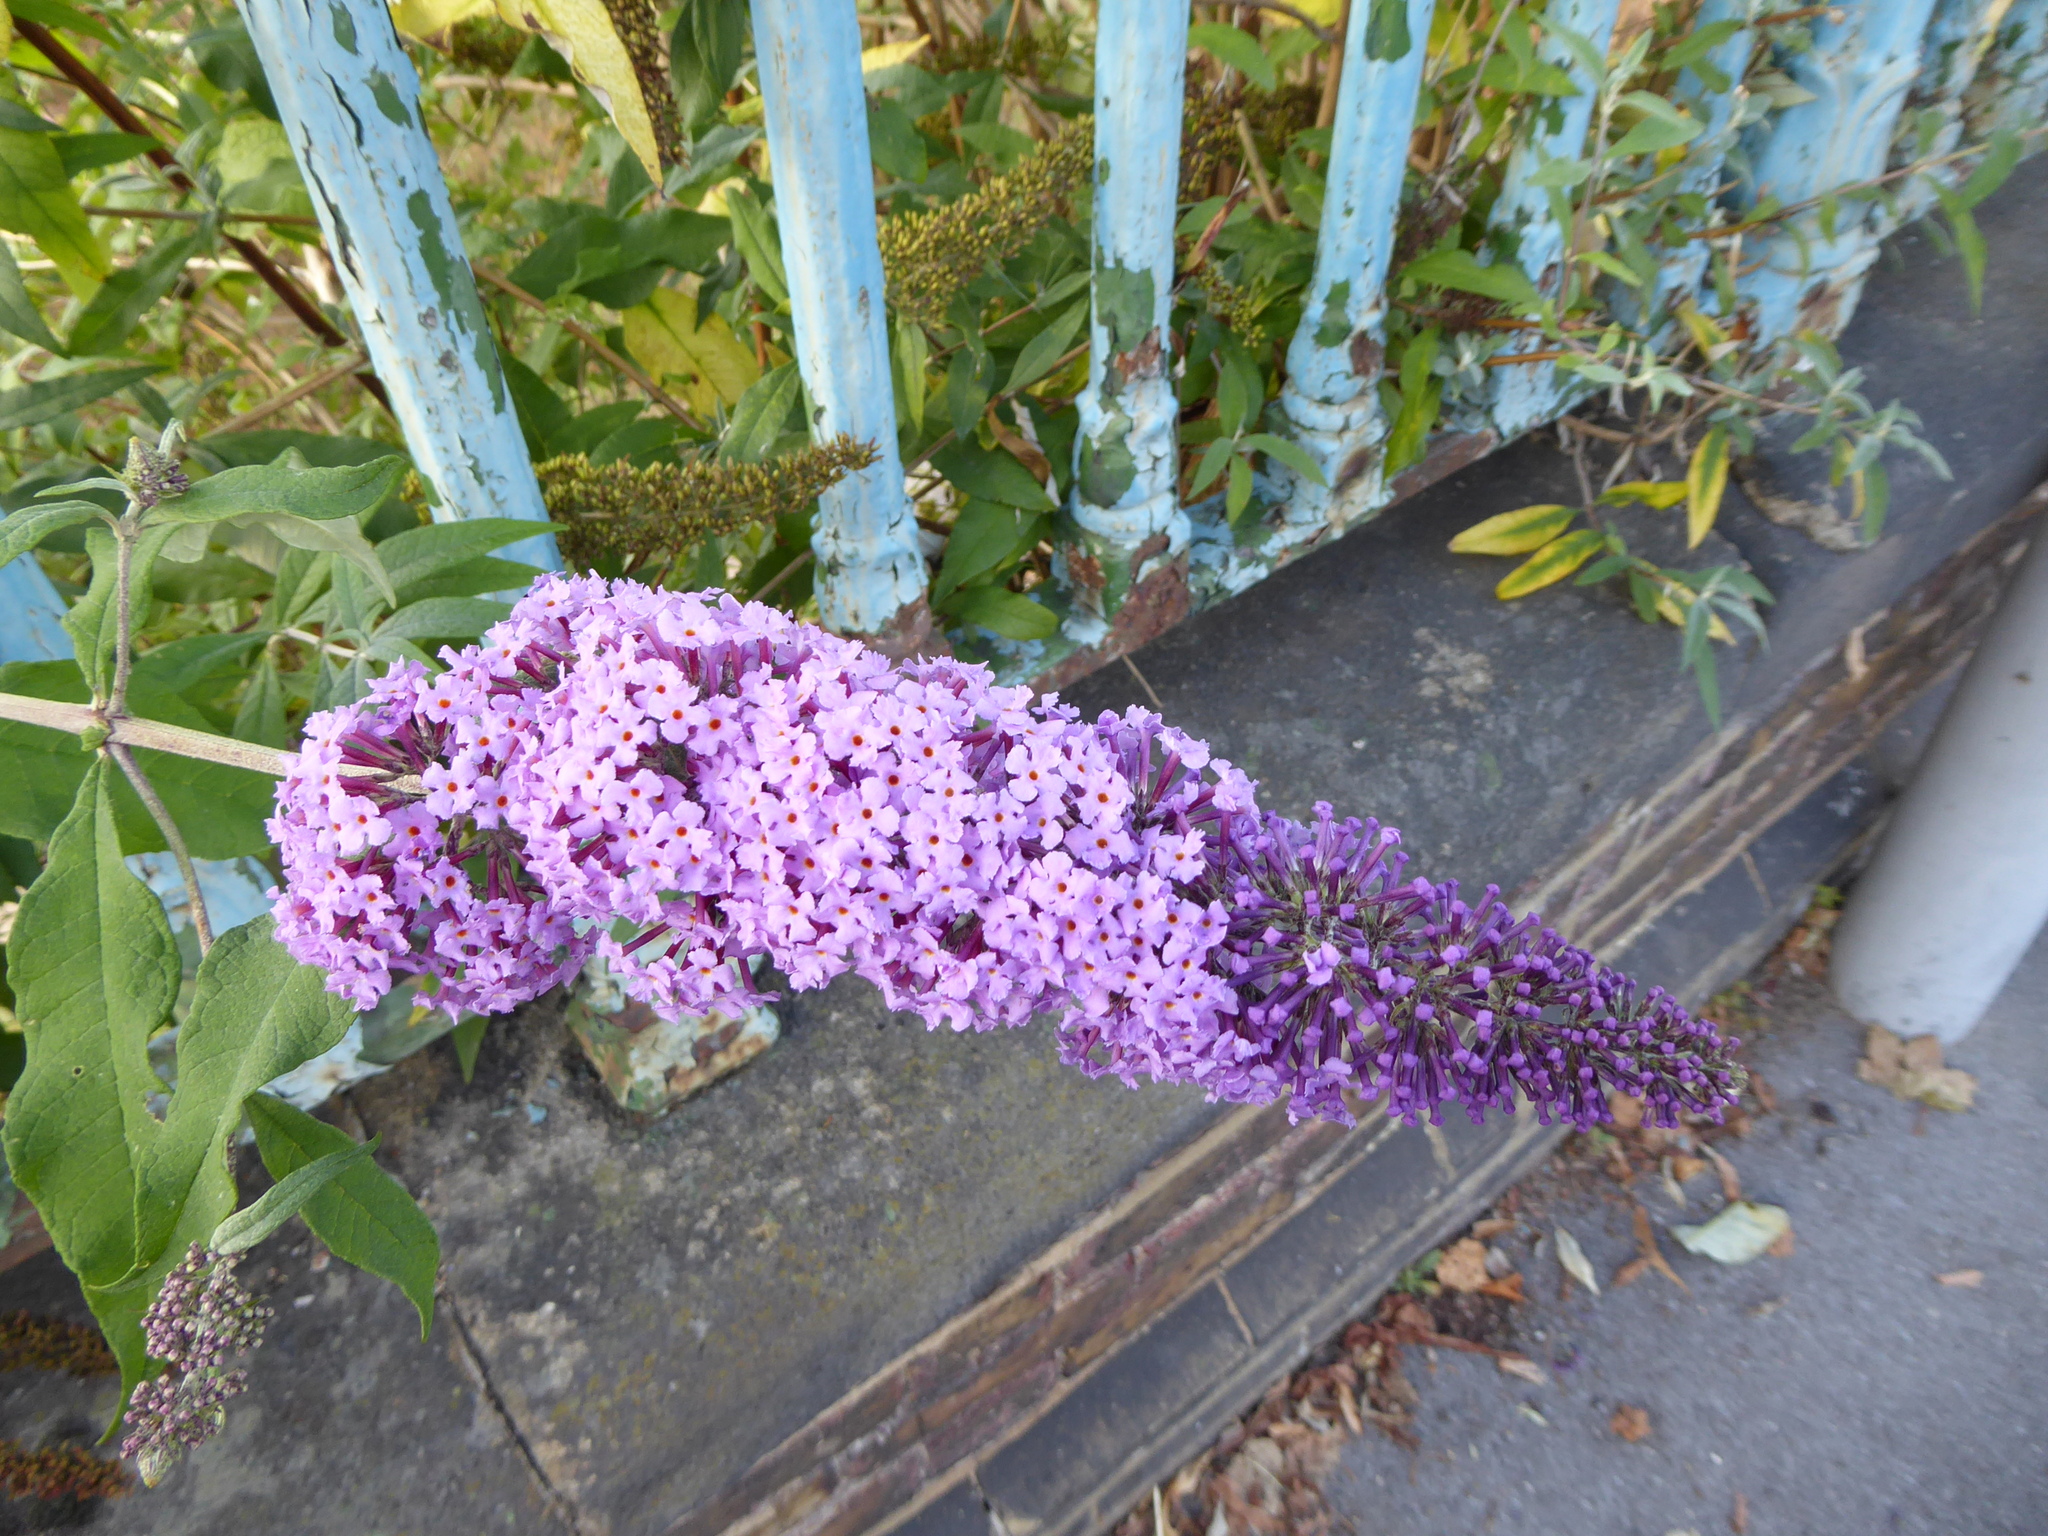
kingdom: Plantae
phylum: Tracheophyta
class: Magnoliopsida
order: Lamiales
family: Scrophulariaceae
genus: Buddleja
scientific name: Buddleja davidii
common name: Butterfly-bush
